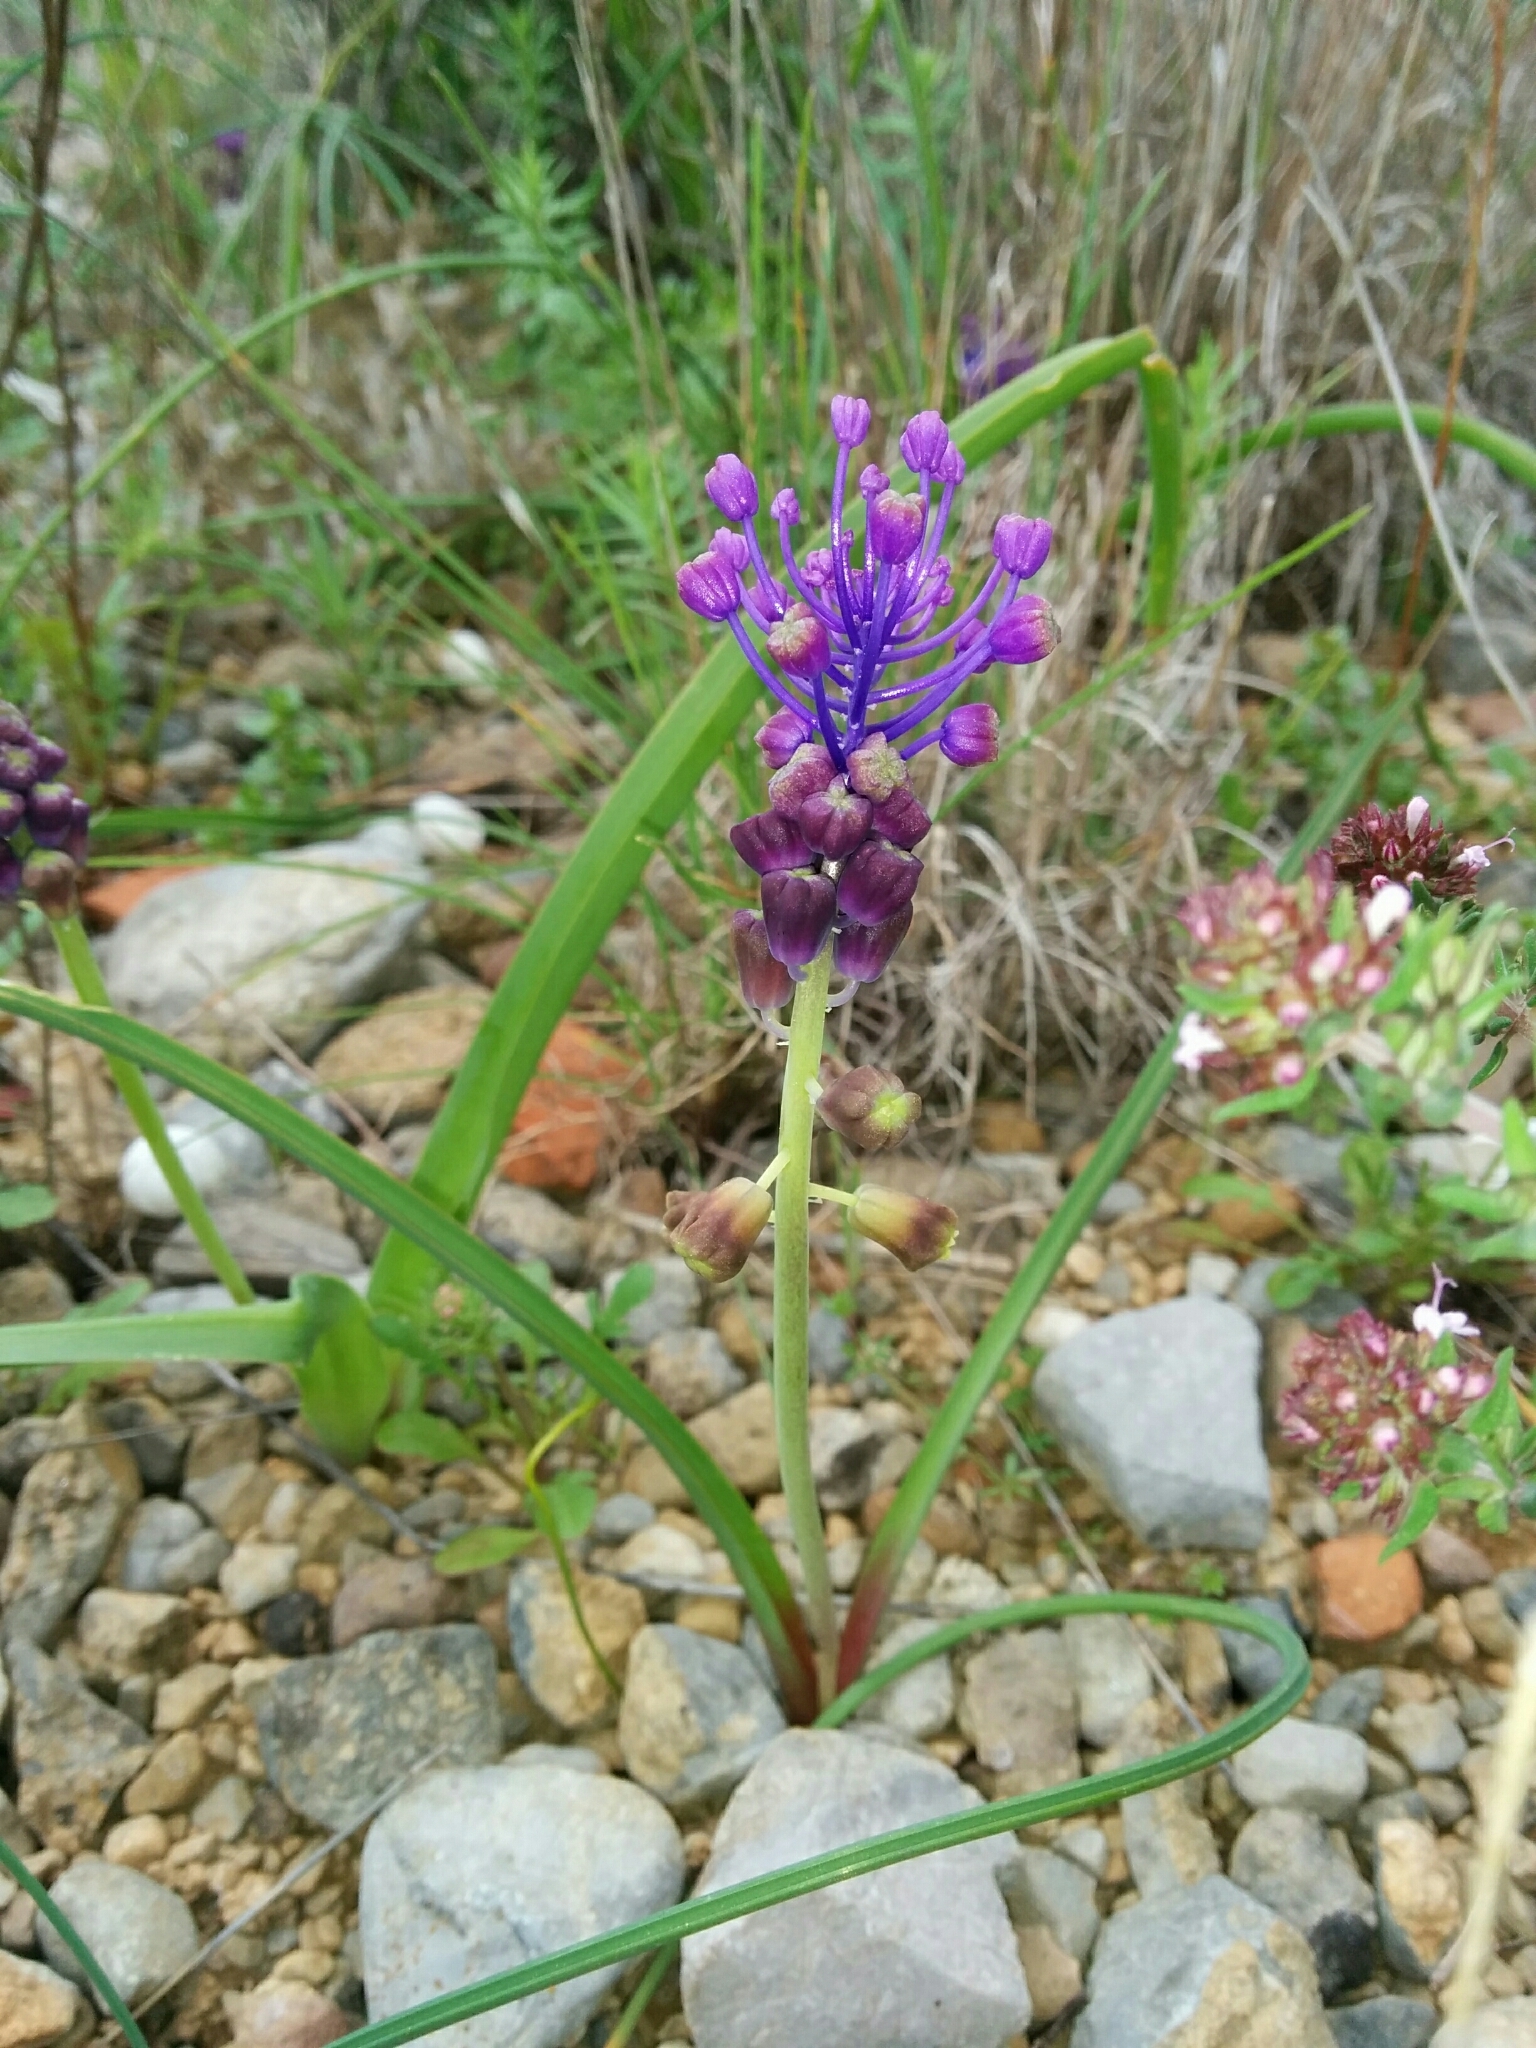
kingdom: Plantae
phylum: Tracheophyta
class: Liliopsida
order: Asparagales
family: Asparagaceae
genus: Muscari
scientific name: Muscari comosum
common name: Tassel hyacinth
